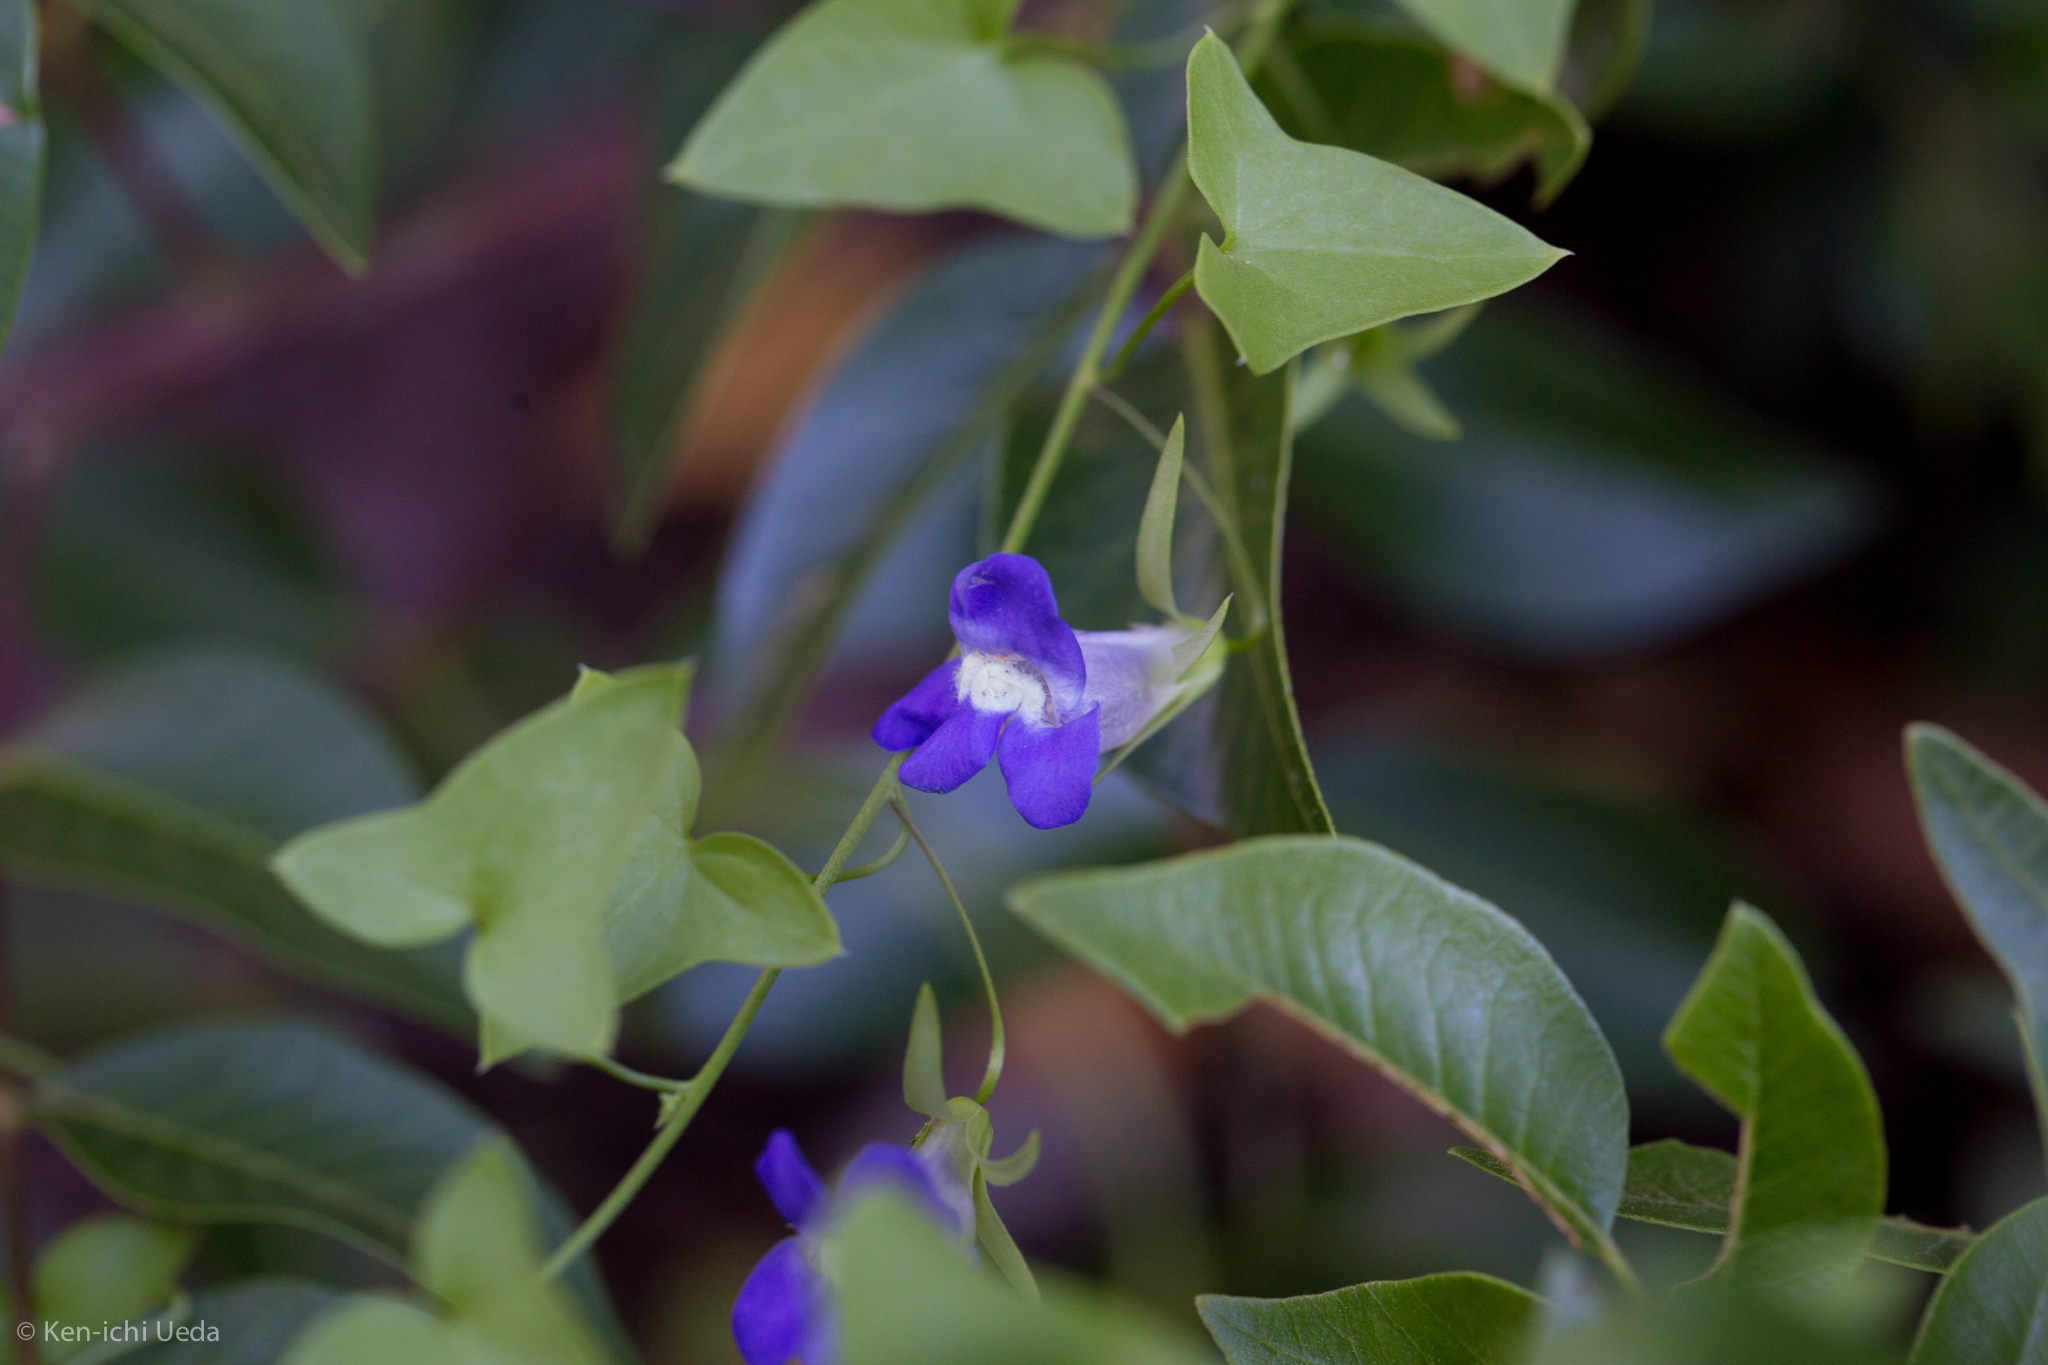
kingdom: Plantae
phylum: Tracheophyta
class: Magnoliopsida
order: Lamiales
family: Plantaginaceae
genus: Maurandella
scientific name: Maurandella antirrhiniflora
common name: Violet twining-snapdragon
